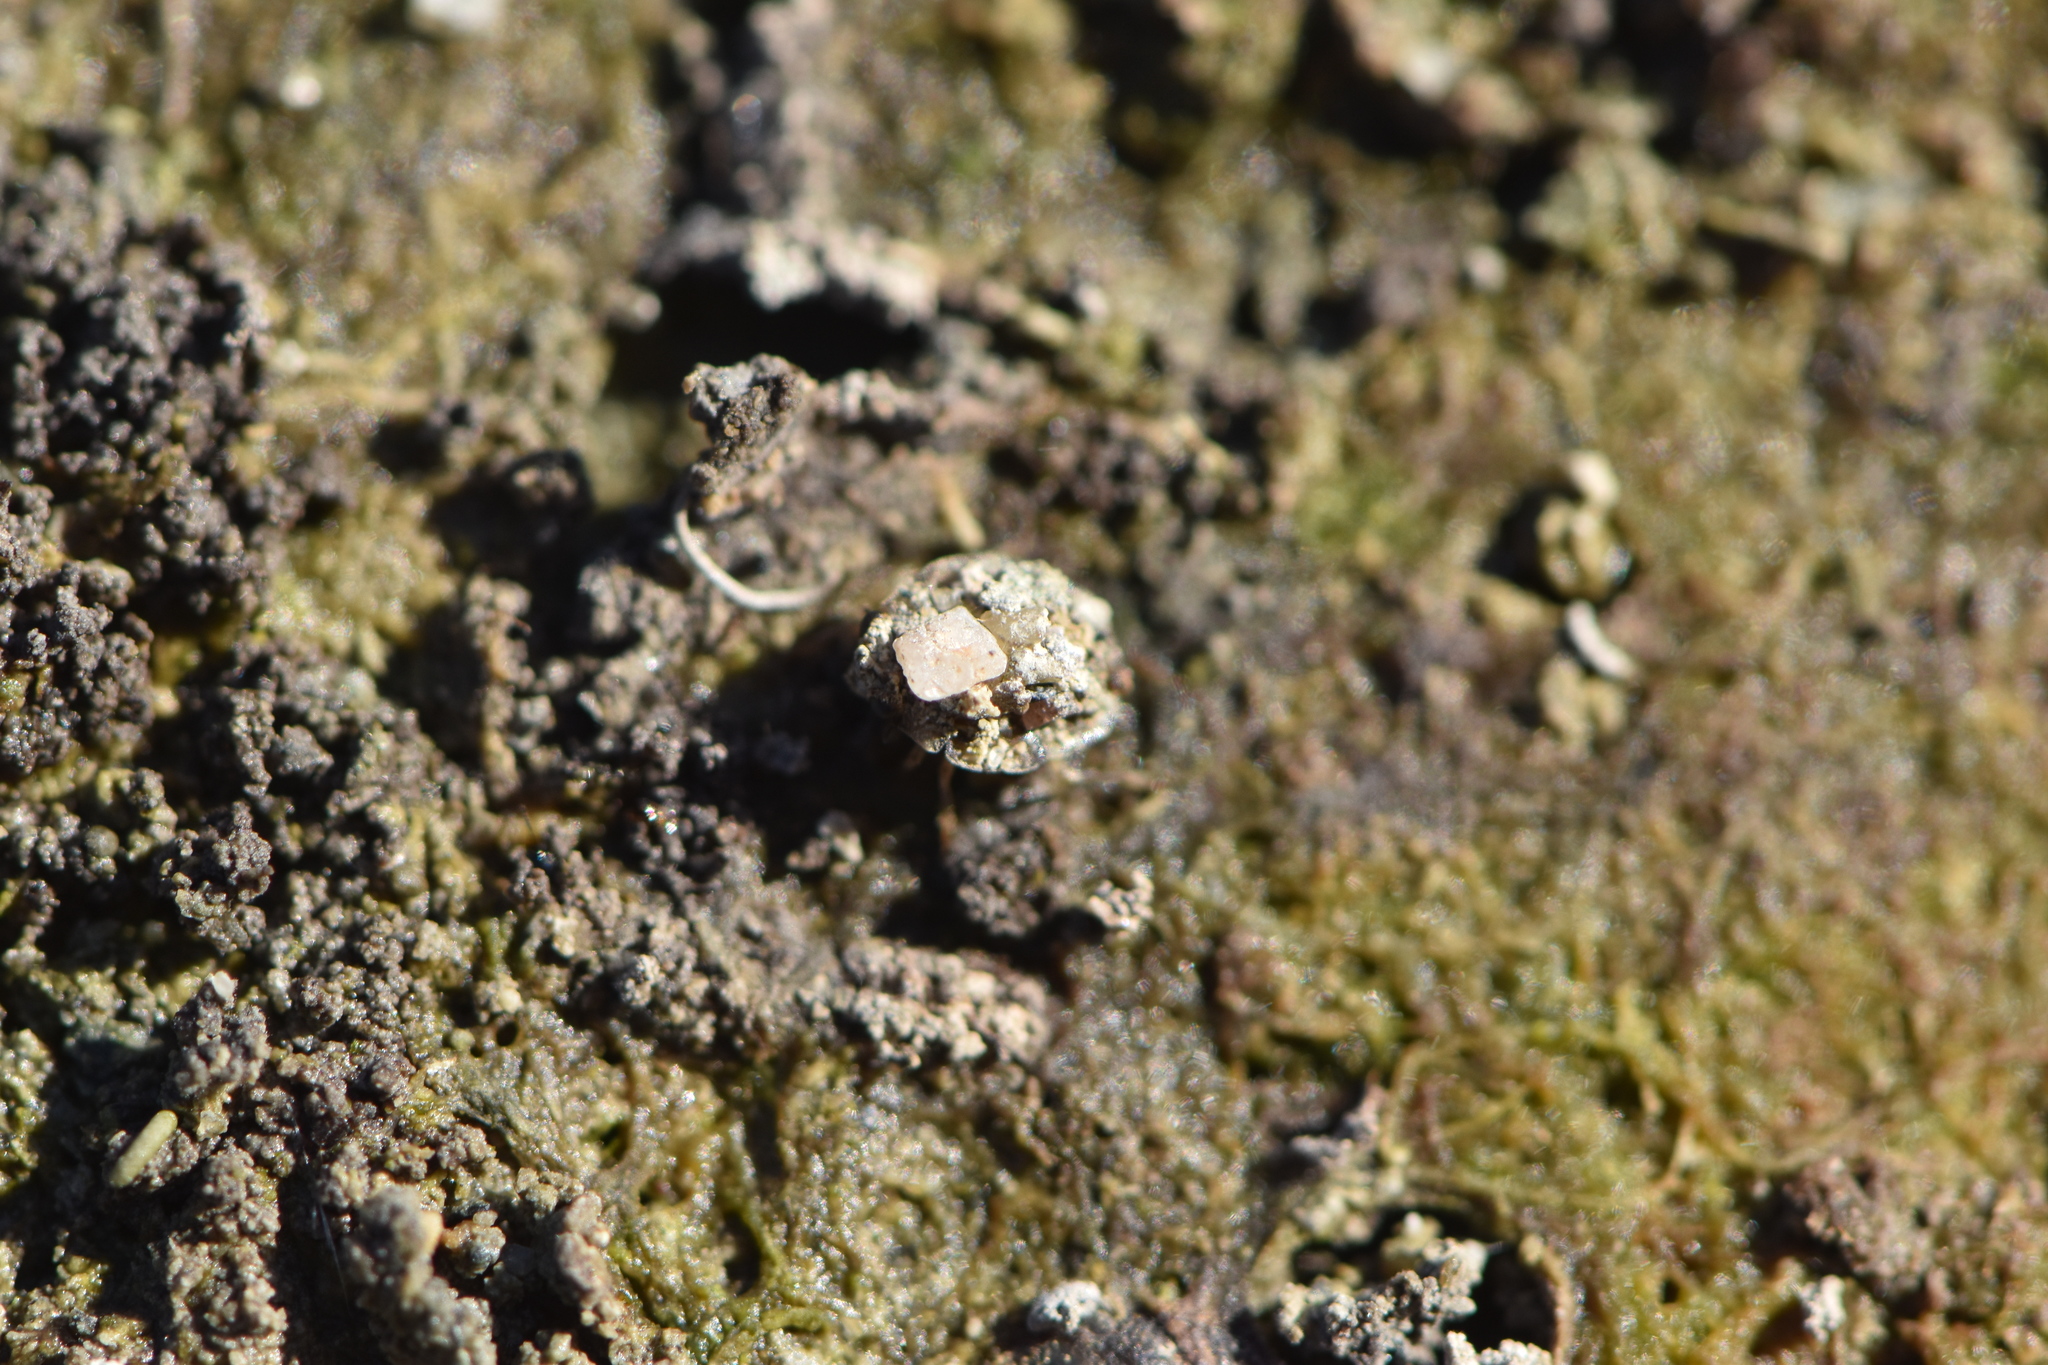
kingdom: Animalia
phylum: Arthropoda
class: Insecta
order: Hemiptera
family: Ochteridae
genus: Ochterus
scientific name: Ochterus marginatus
